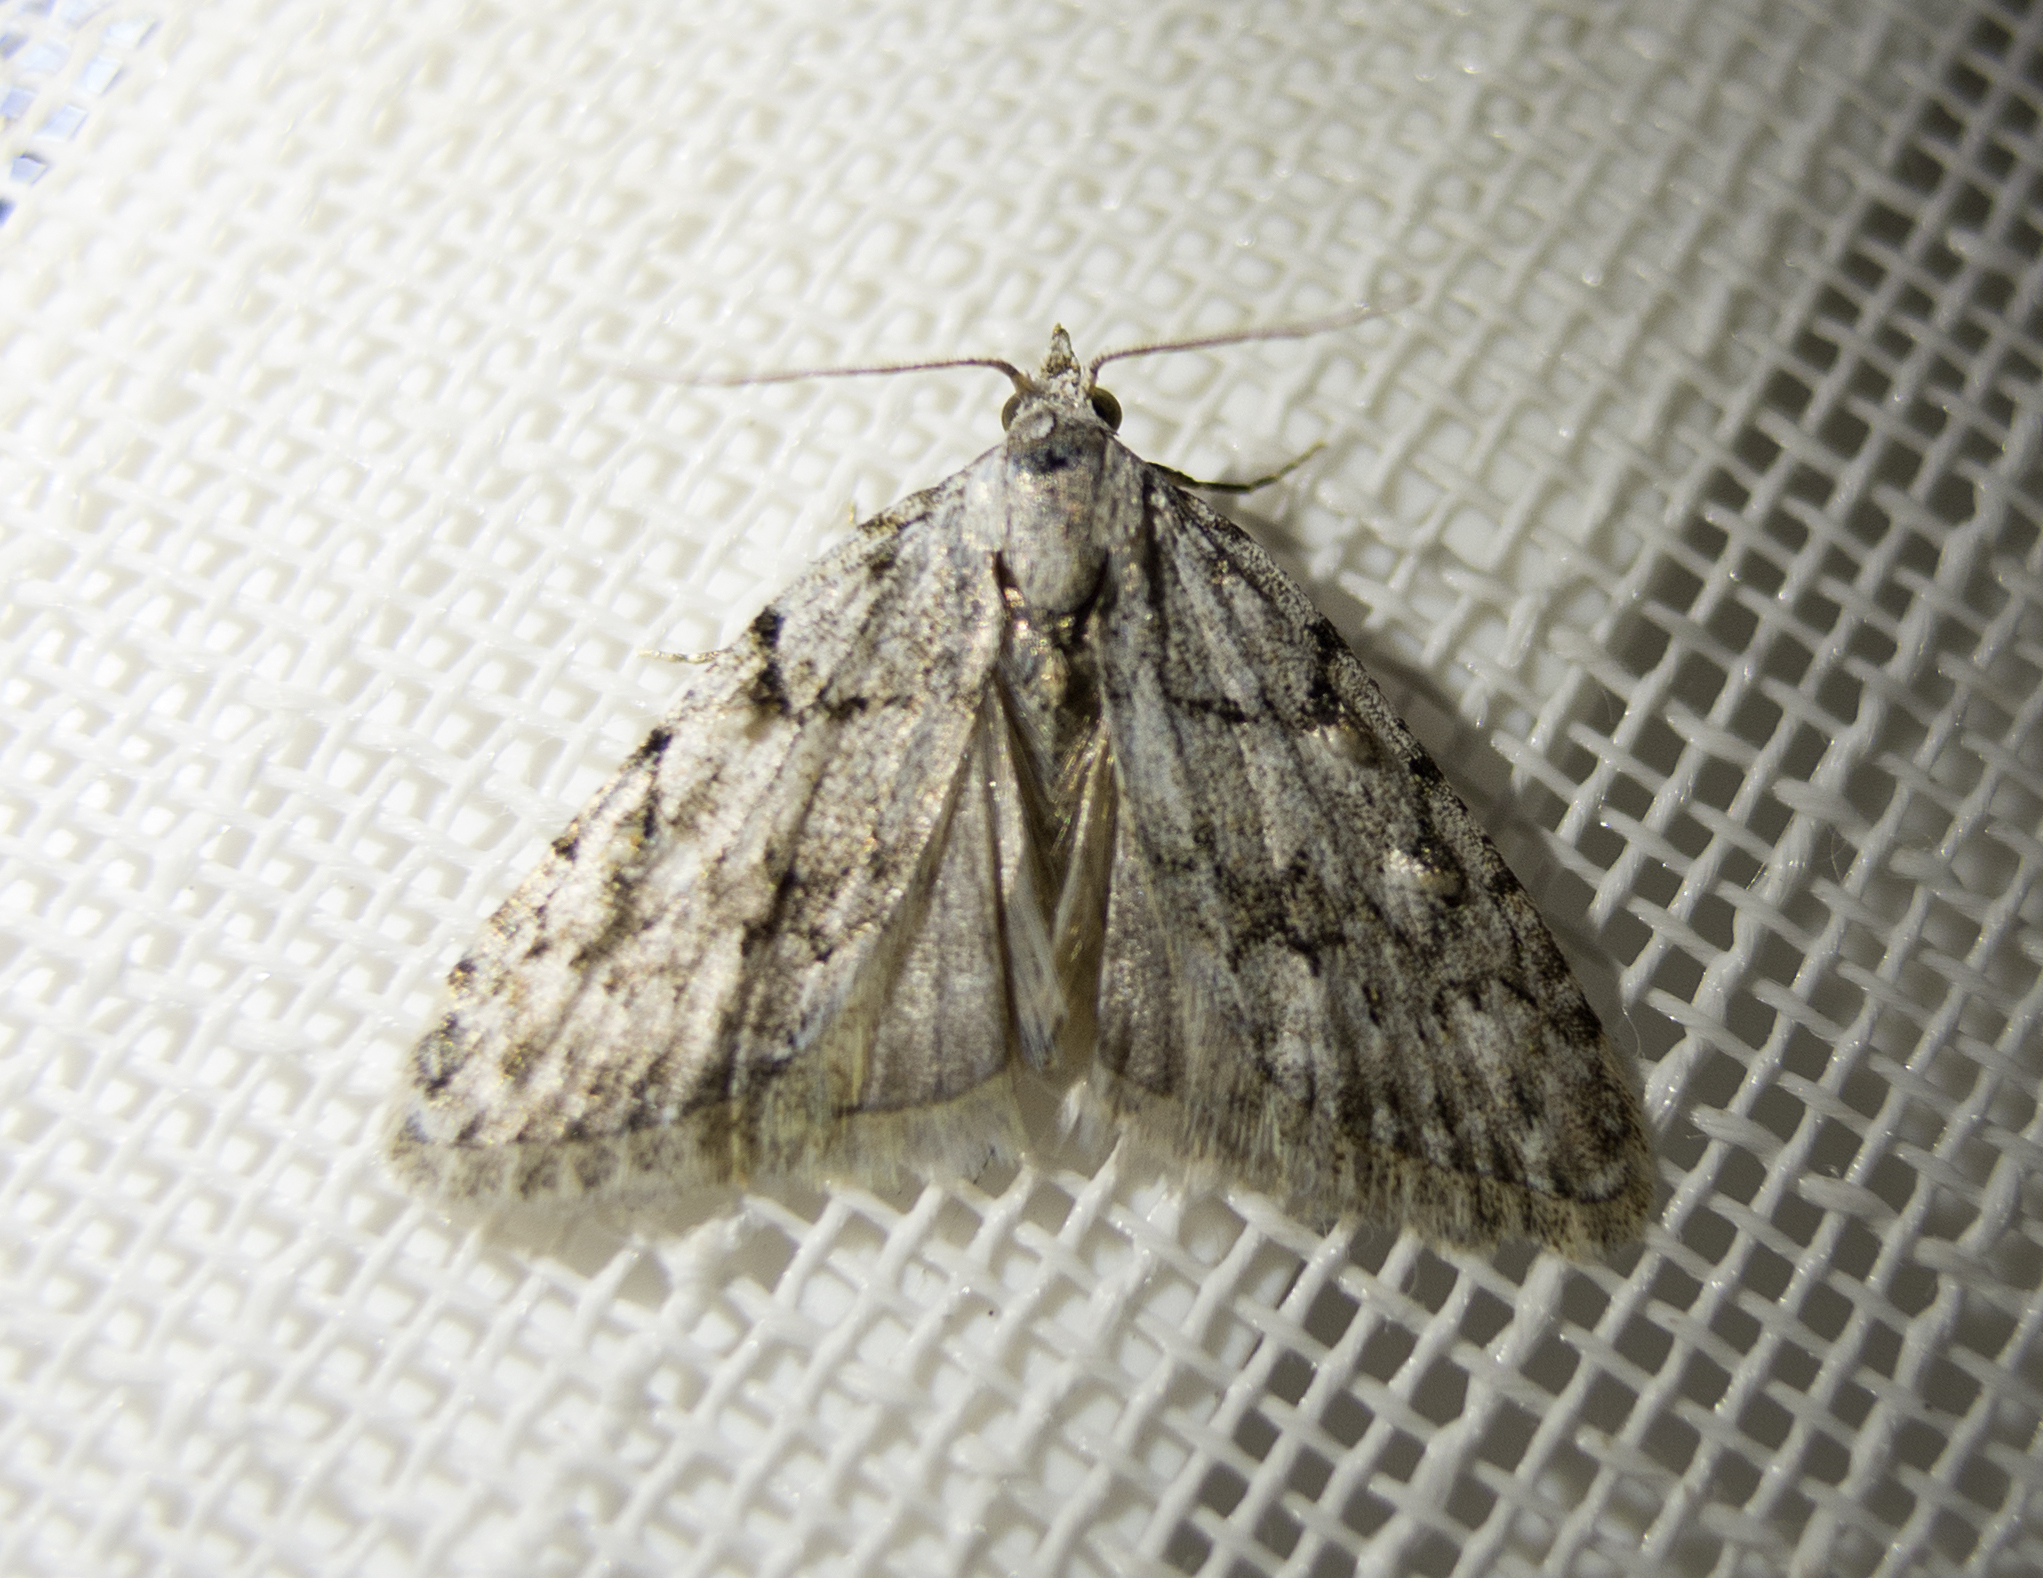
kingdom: Animalia
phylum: Arthropoda
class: Insecta
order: Lepidoptera
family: Nolidae
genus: Nola
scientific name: Nola cicatricalis
